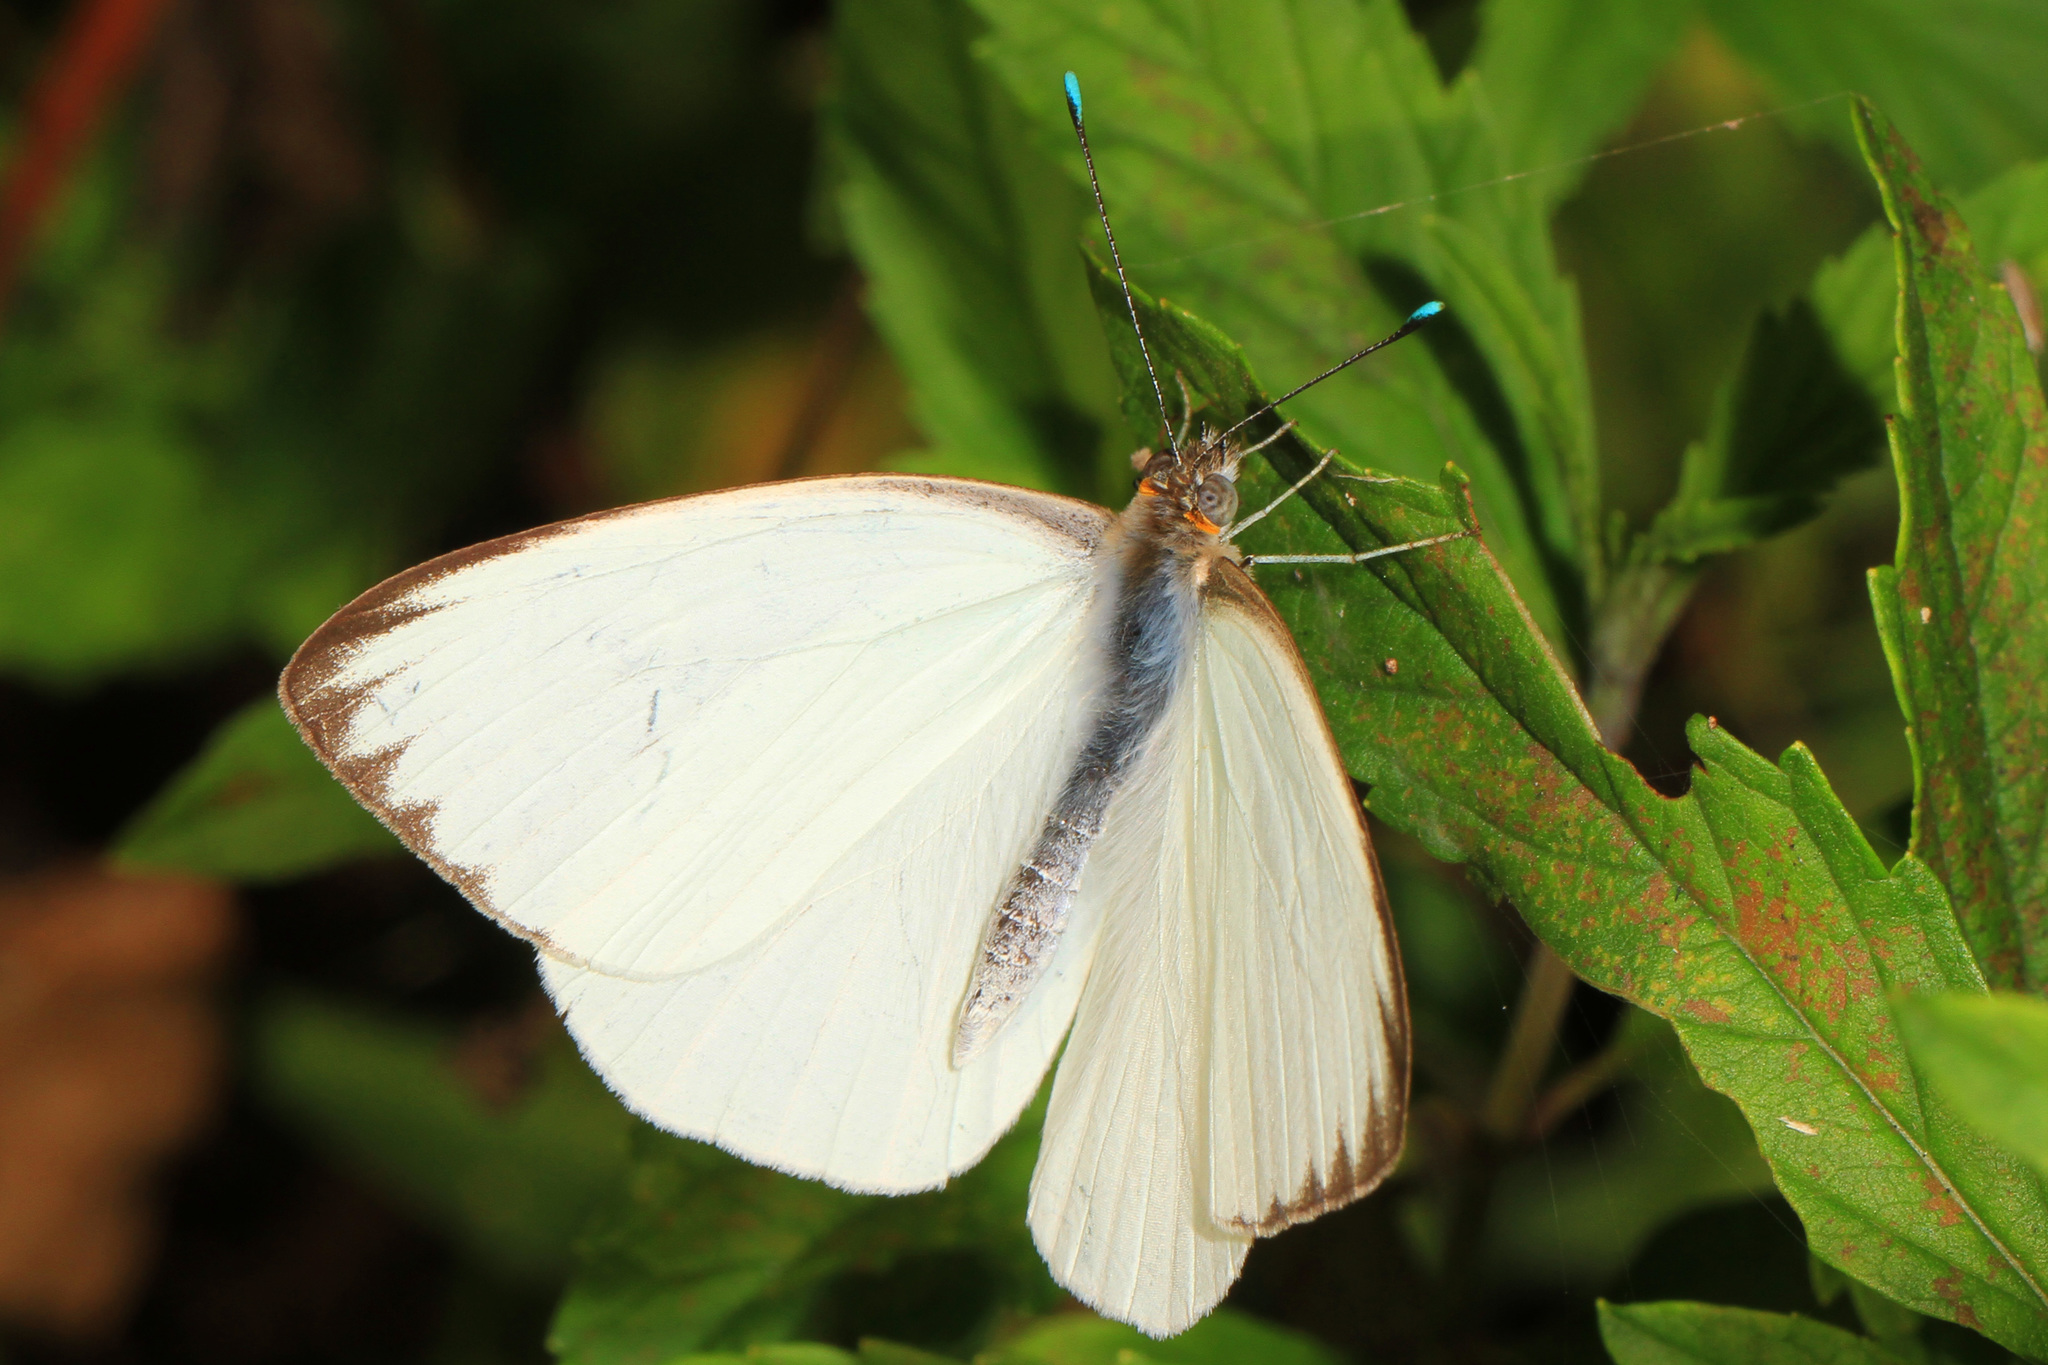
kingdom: Animalia
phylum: Arthropoda
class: Insecta
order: Lepidoptera
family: Pieridae
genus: Ascia
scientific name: Ascia monuste
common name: Great southern white
